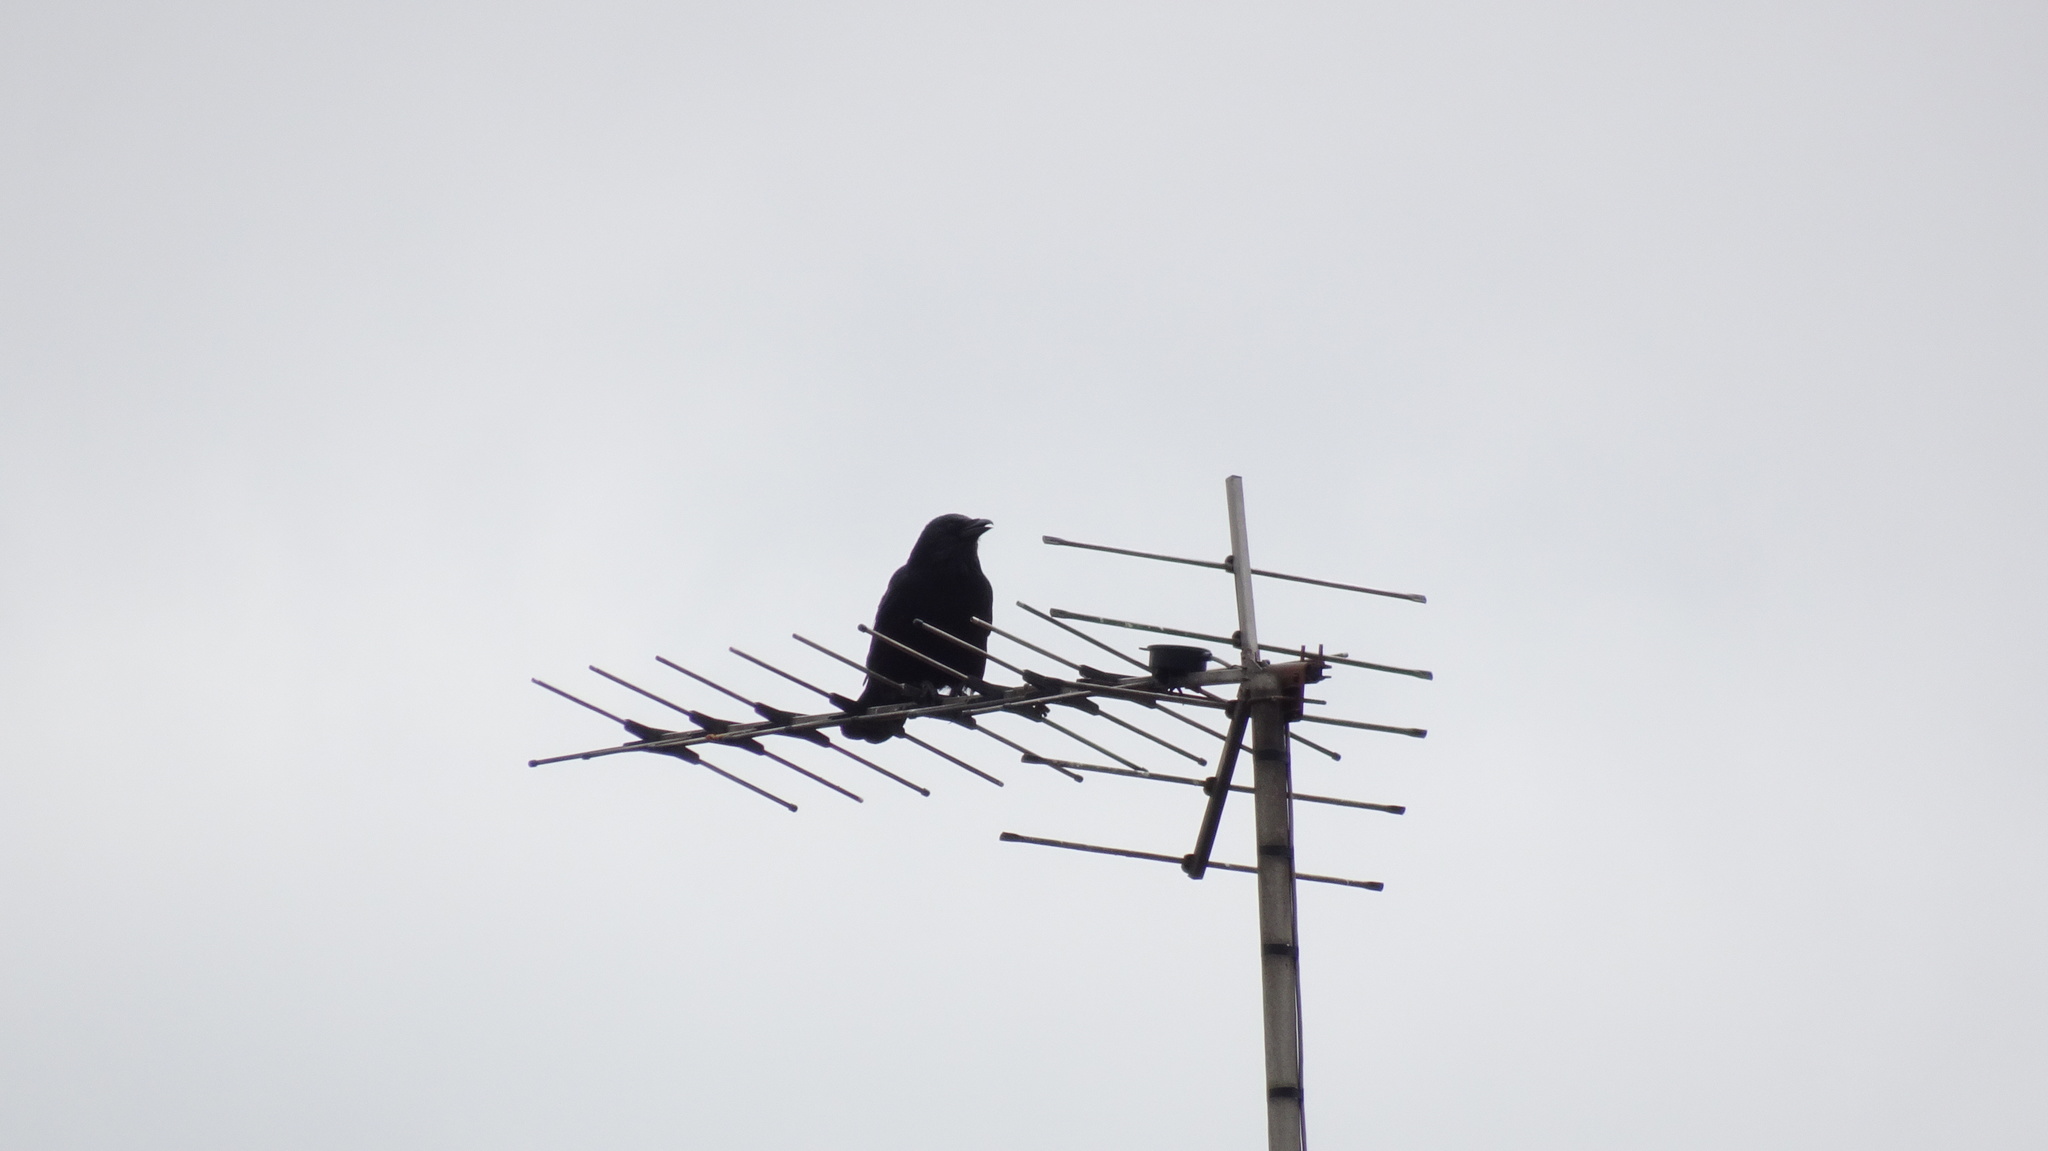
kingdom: Animalia
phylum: Chordata
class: Aves
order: Passeriformes
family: Corvidae
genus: Corvus
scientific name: Corvus corone
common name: Carrion crow
